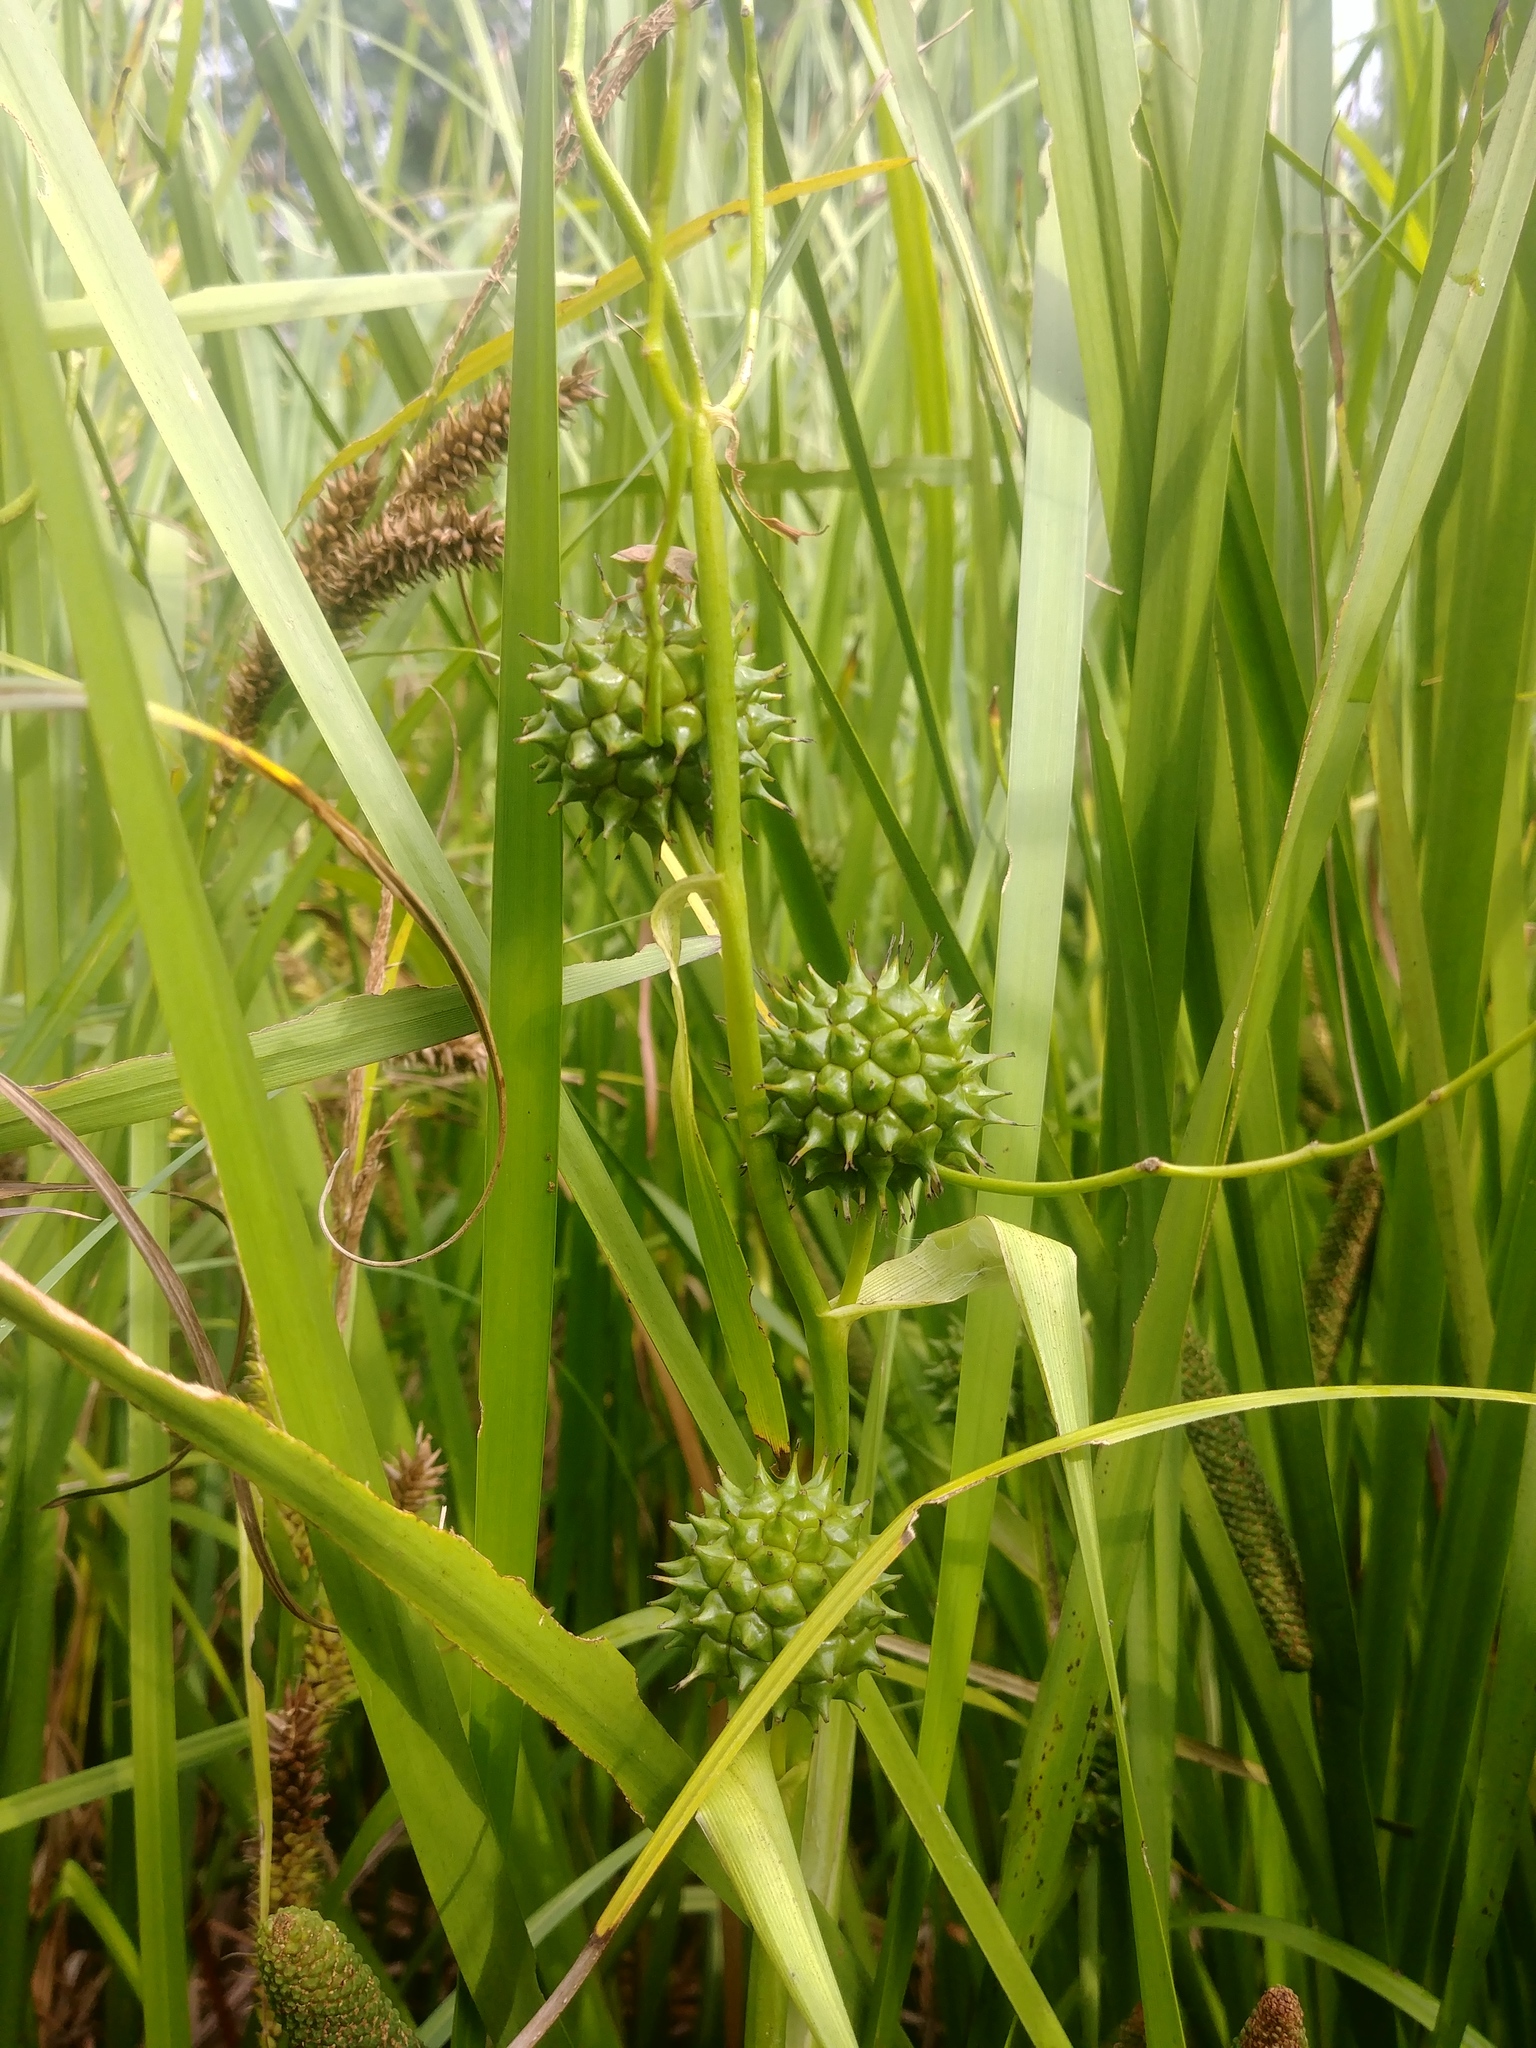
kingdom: Plantae
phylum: Tracheophyta
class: Liliopsida
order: Poales
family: Typhaceae
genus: Sparganium
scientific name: Sparganium eurycarpum
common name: Broad-fruited burreed
